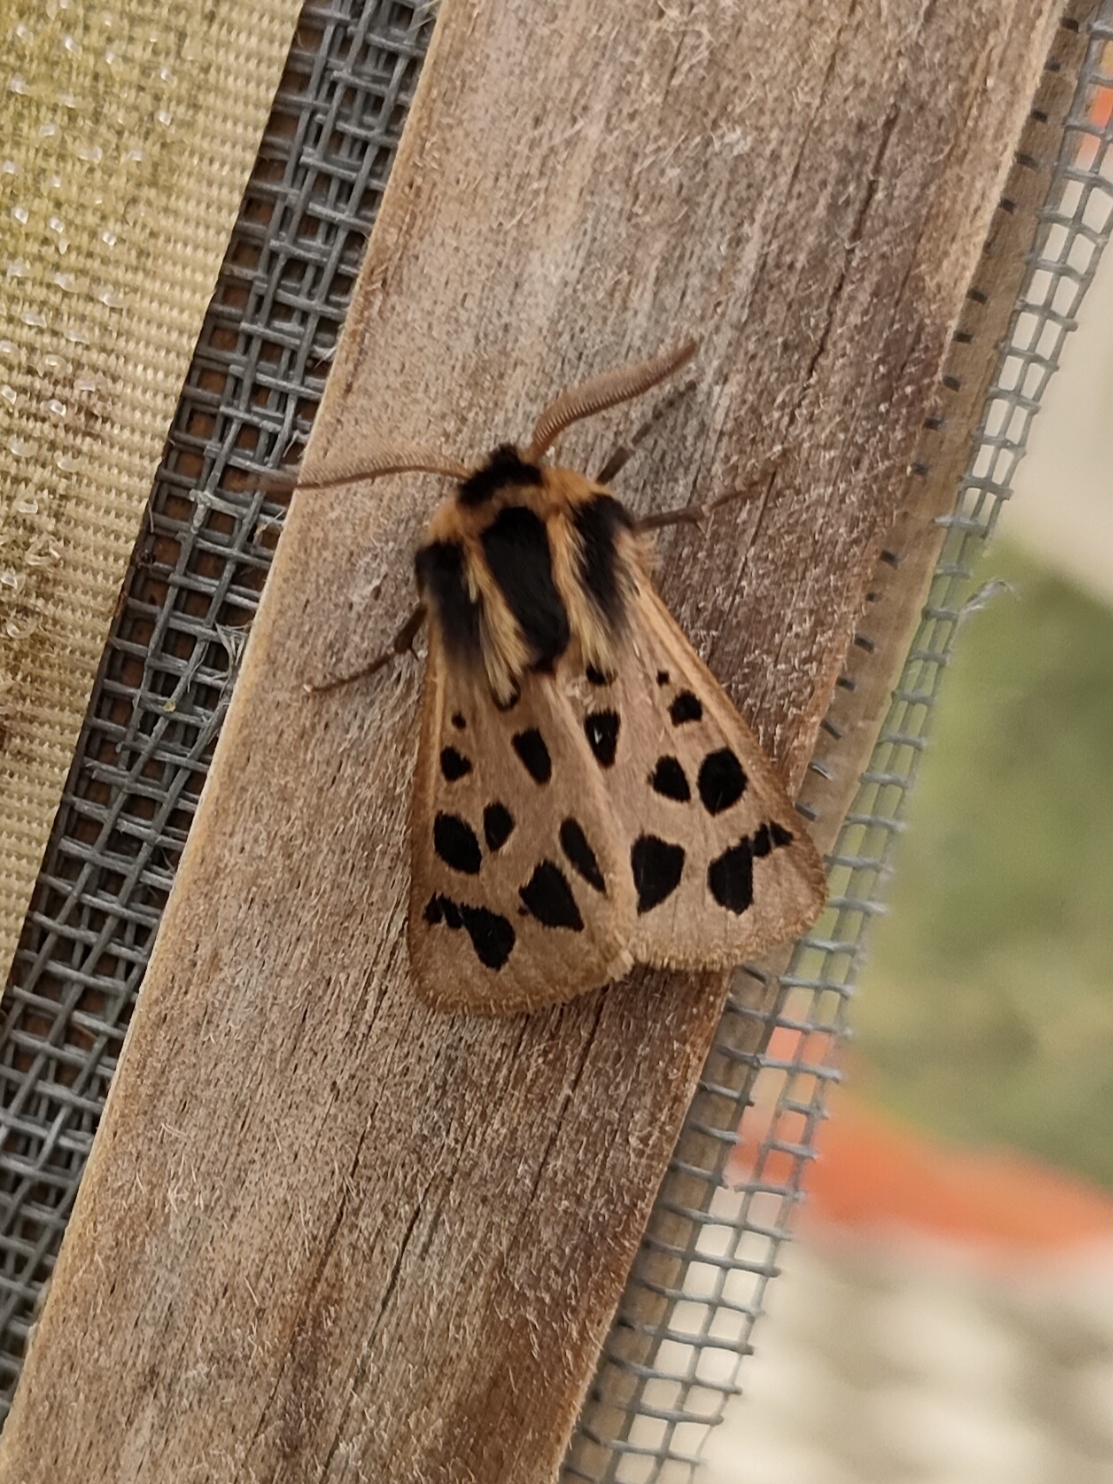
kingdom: Animalia
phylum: Arthropoda
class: Insecta
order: Lepidoptera
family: Erebidae
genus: Chelis
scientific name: Chelis maculosa
